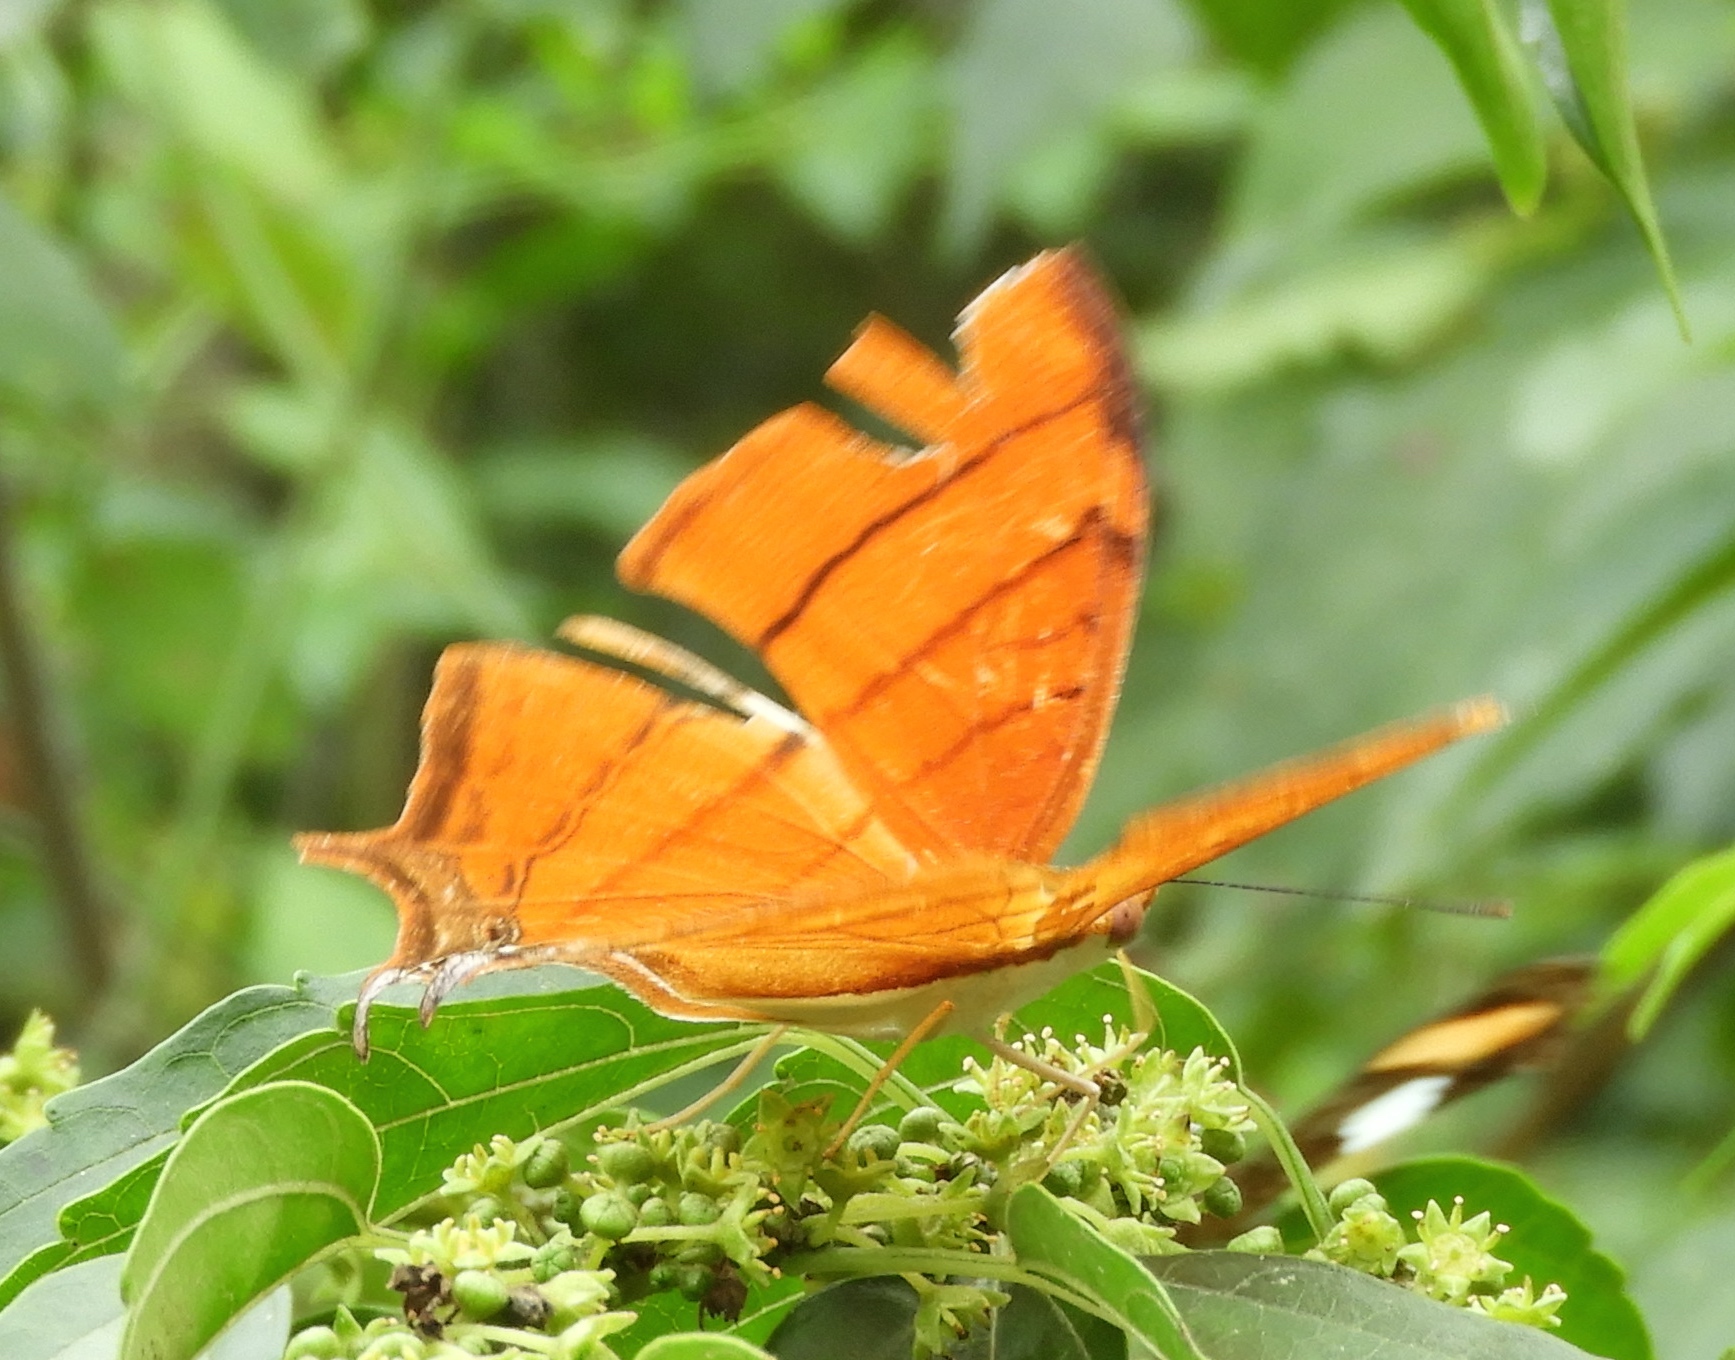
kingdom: Animalia
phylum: Arthropoda
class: Insecta
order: Lepidoptera
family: Nymphalidae
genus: Marpesia
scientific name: Marpesia petreus
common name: Red dagger wing
